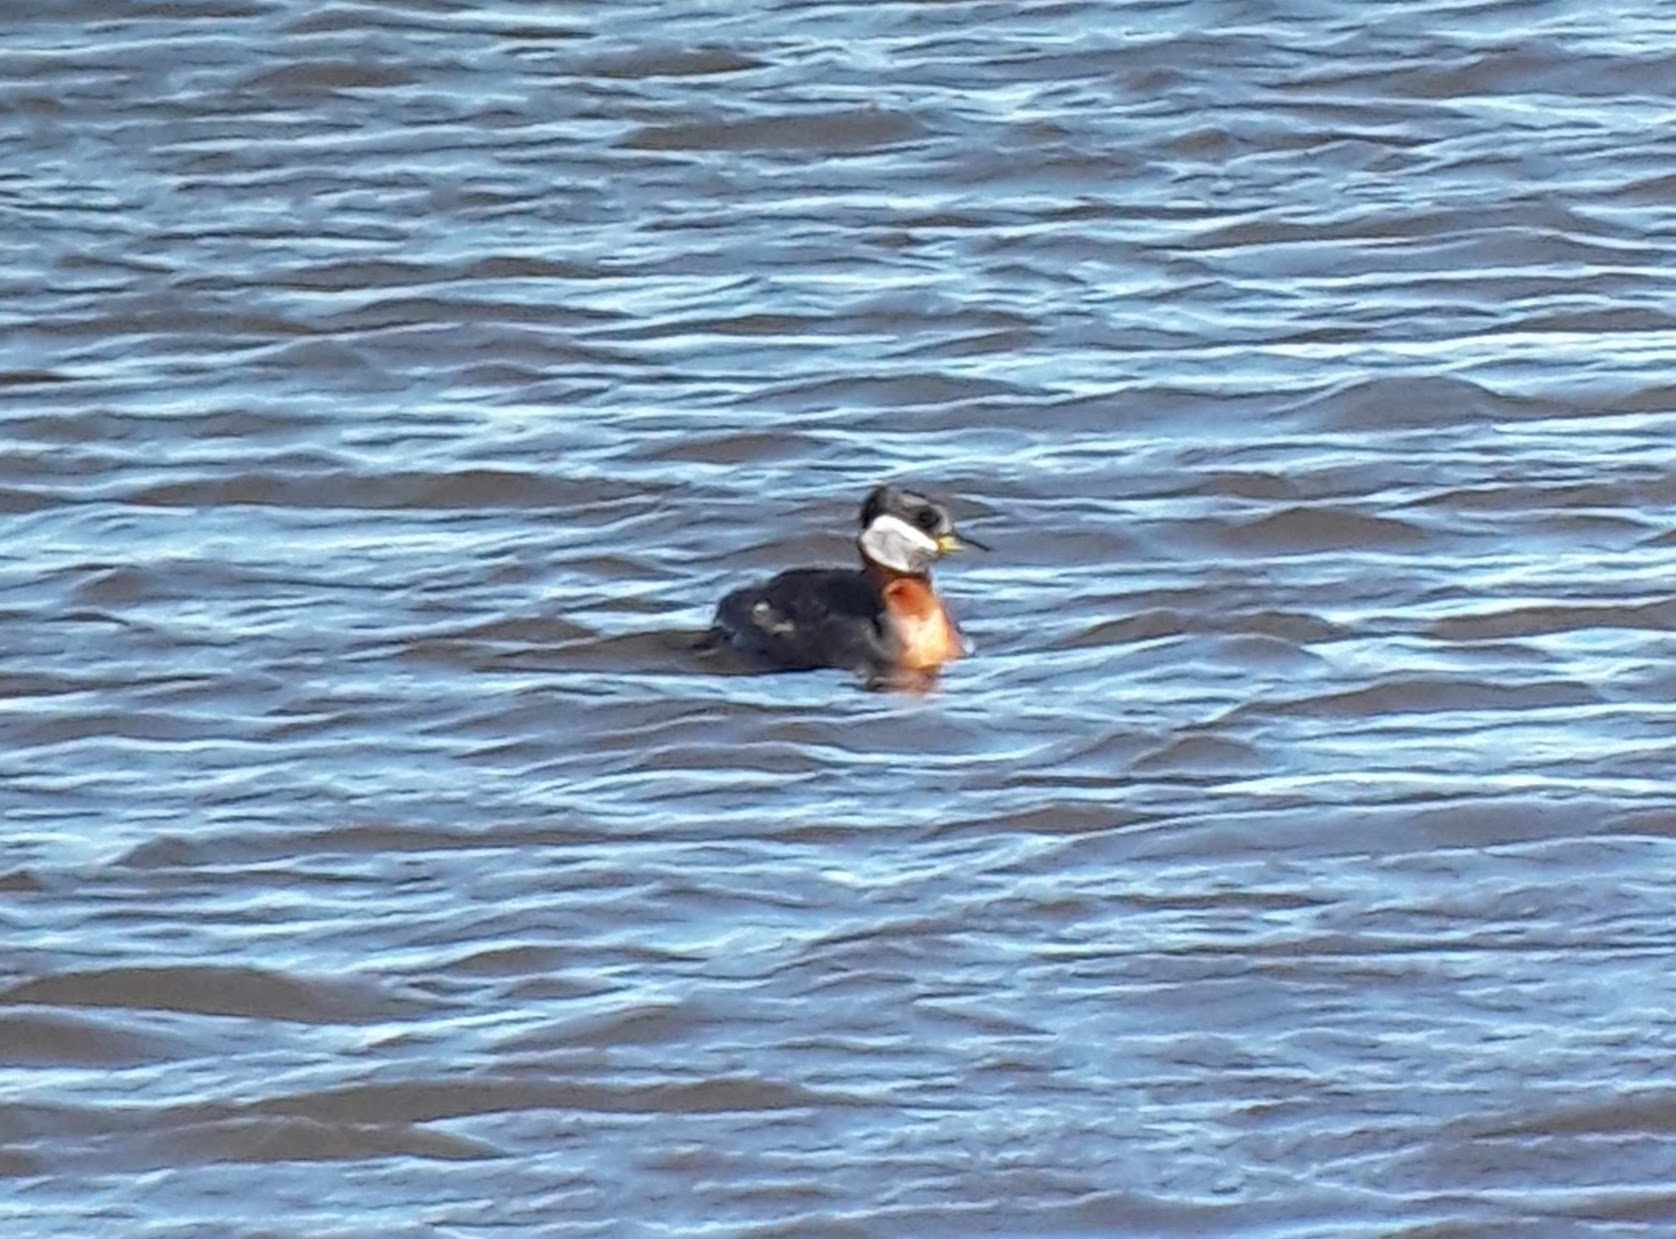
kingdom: Animalia
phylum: Chordata
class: Aves
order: Podicipediformes
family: Podicipedidae
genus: Podiceps
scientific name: Podiceps grisegena
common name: Red-necked grebe
